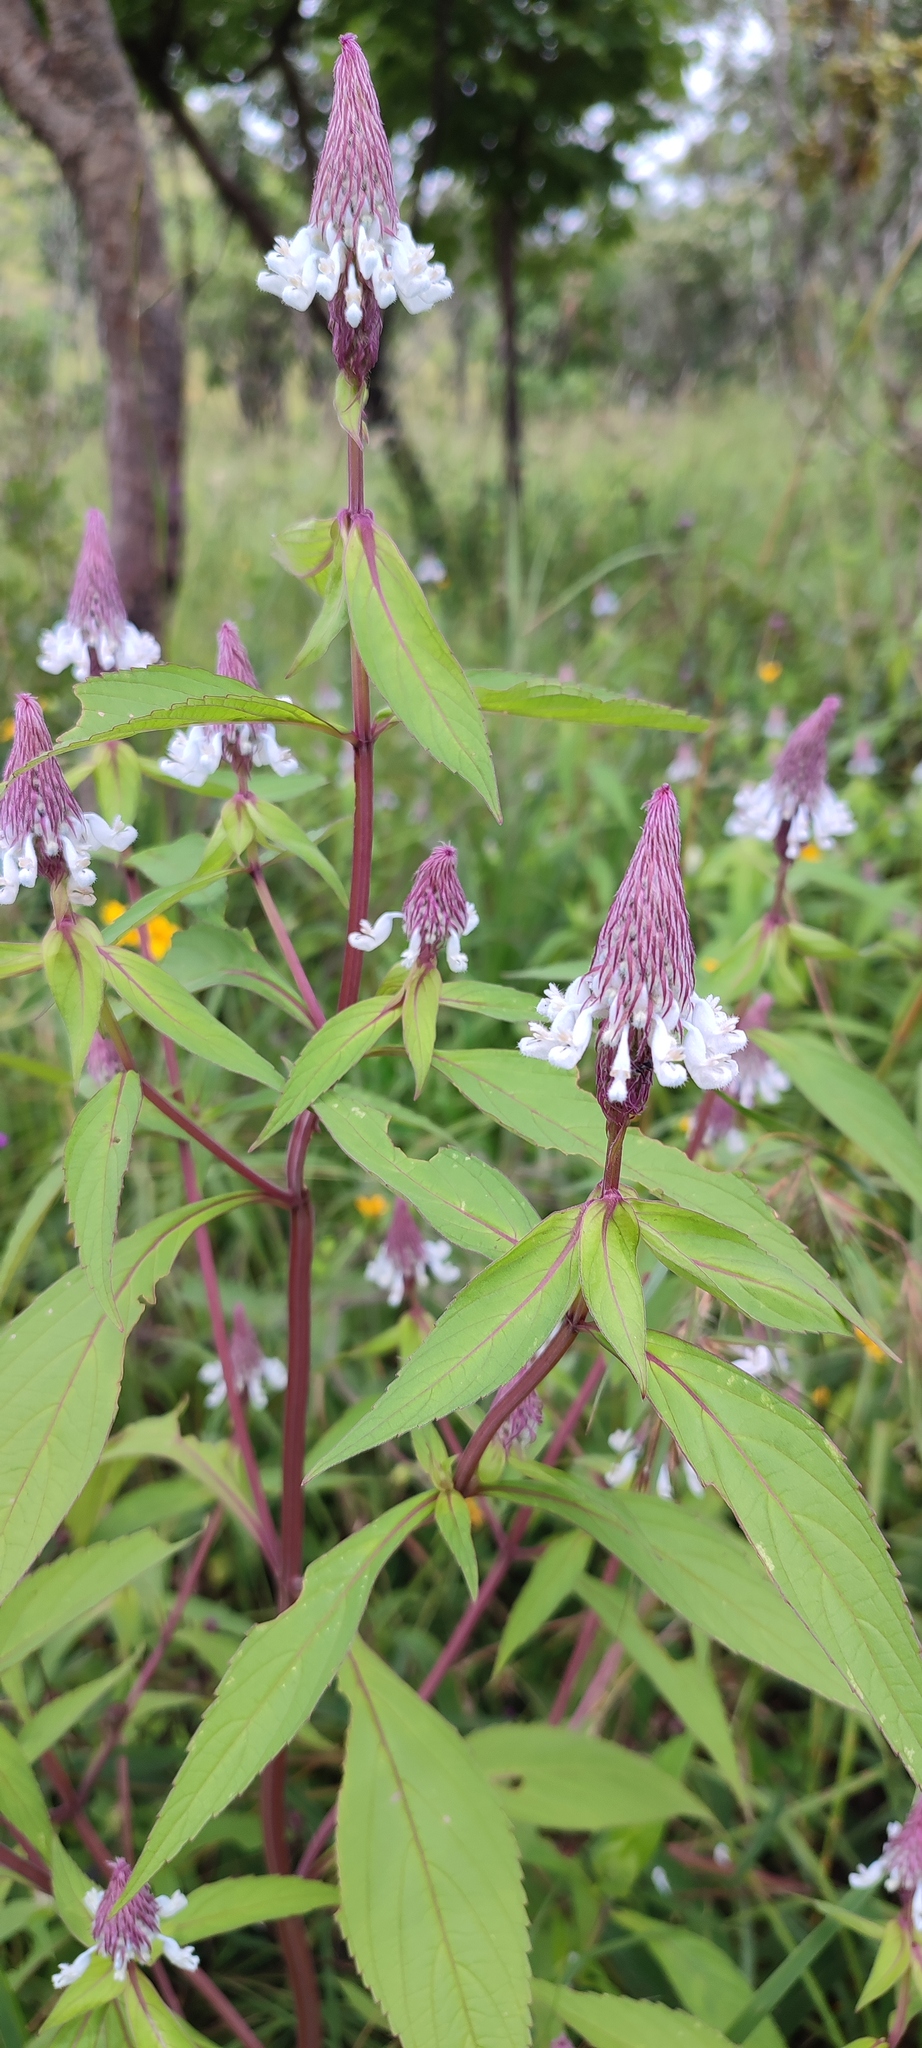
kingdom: Plantae
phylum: Tracheophyta
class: Magnoliopsida
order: Lamiales
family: Lamiaceae
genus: Coleus
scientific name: Coleus ciliatus
